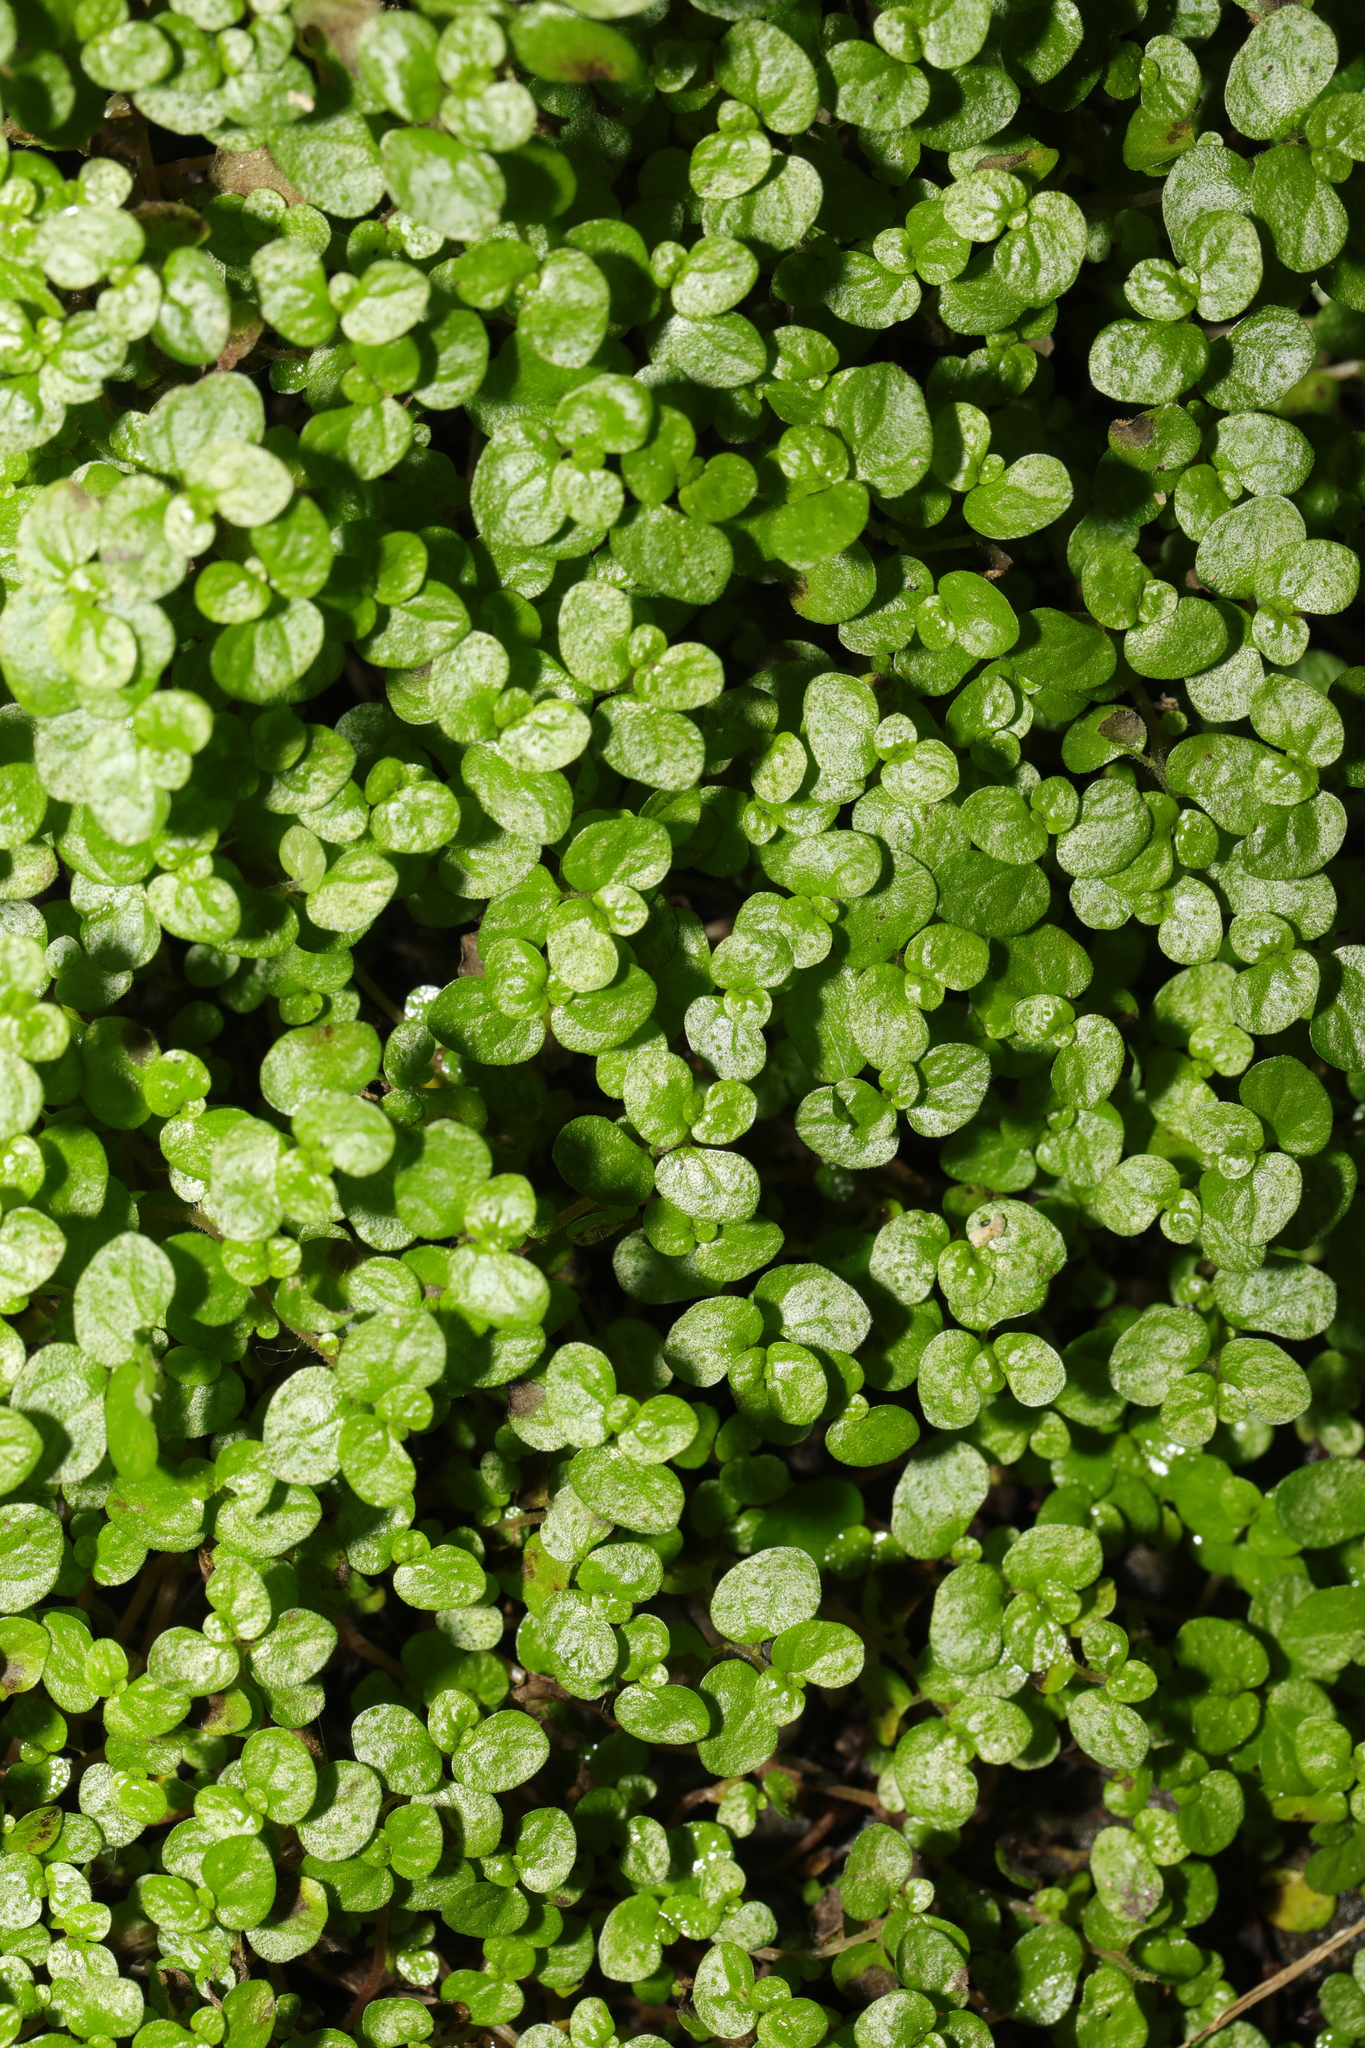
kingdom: Plantae
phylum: Tracheophyta
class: Magnoliopsida
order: Rosales
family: Urticaceae
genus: Soleirolia
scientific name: Soleirolia soleirolii
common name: Mind-your-own-business
